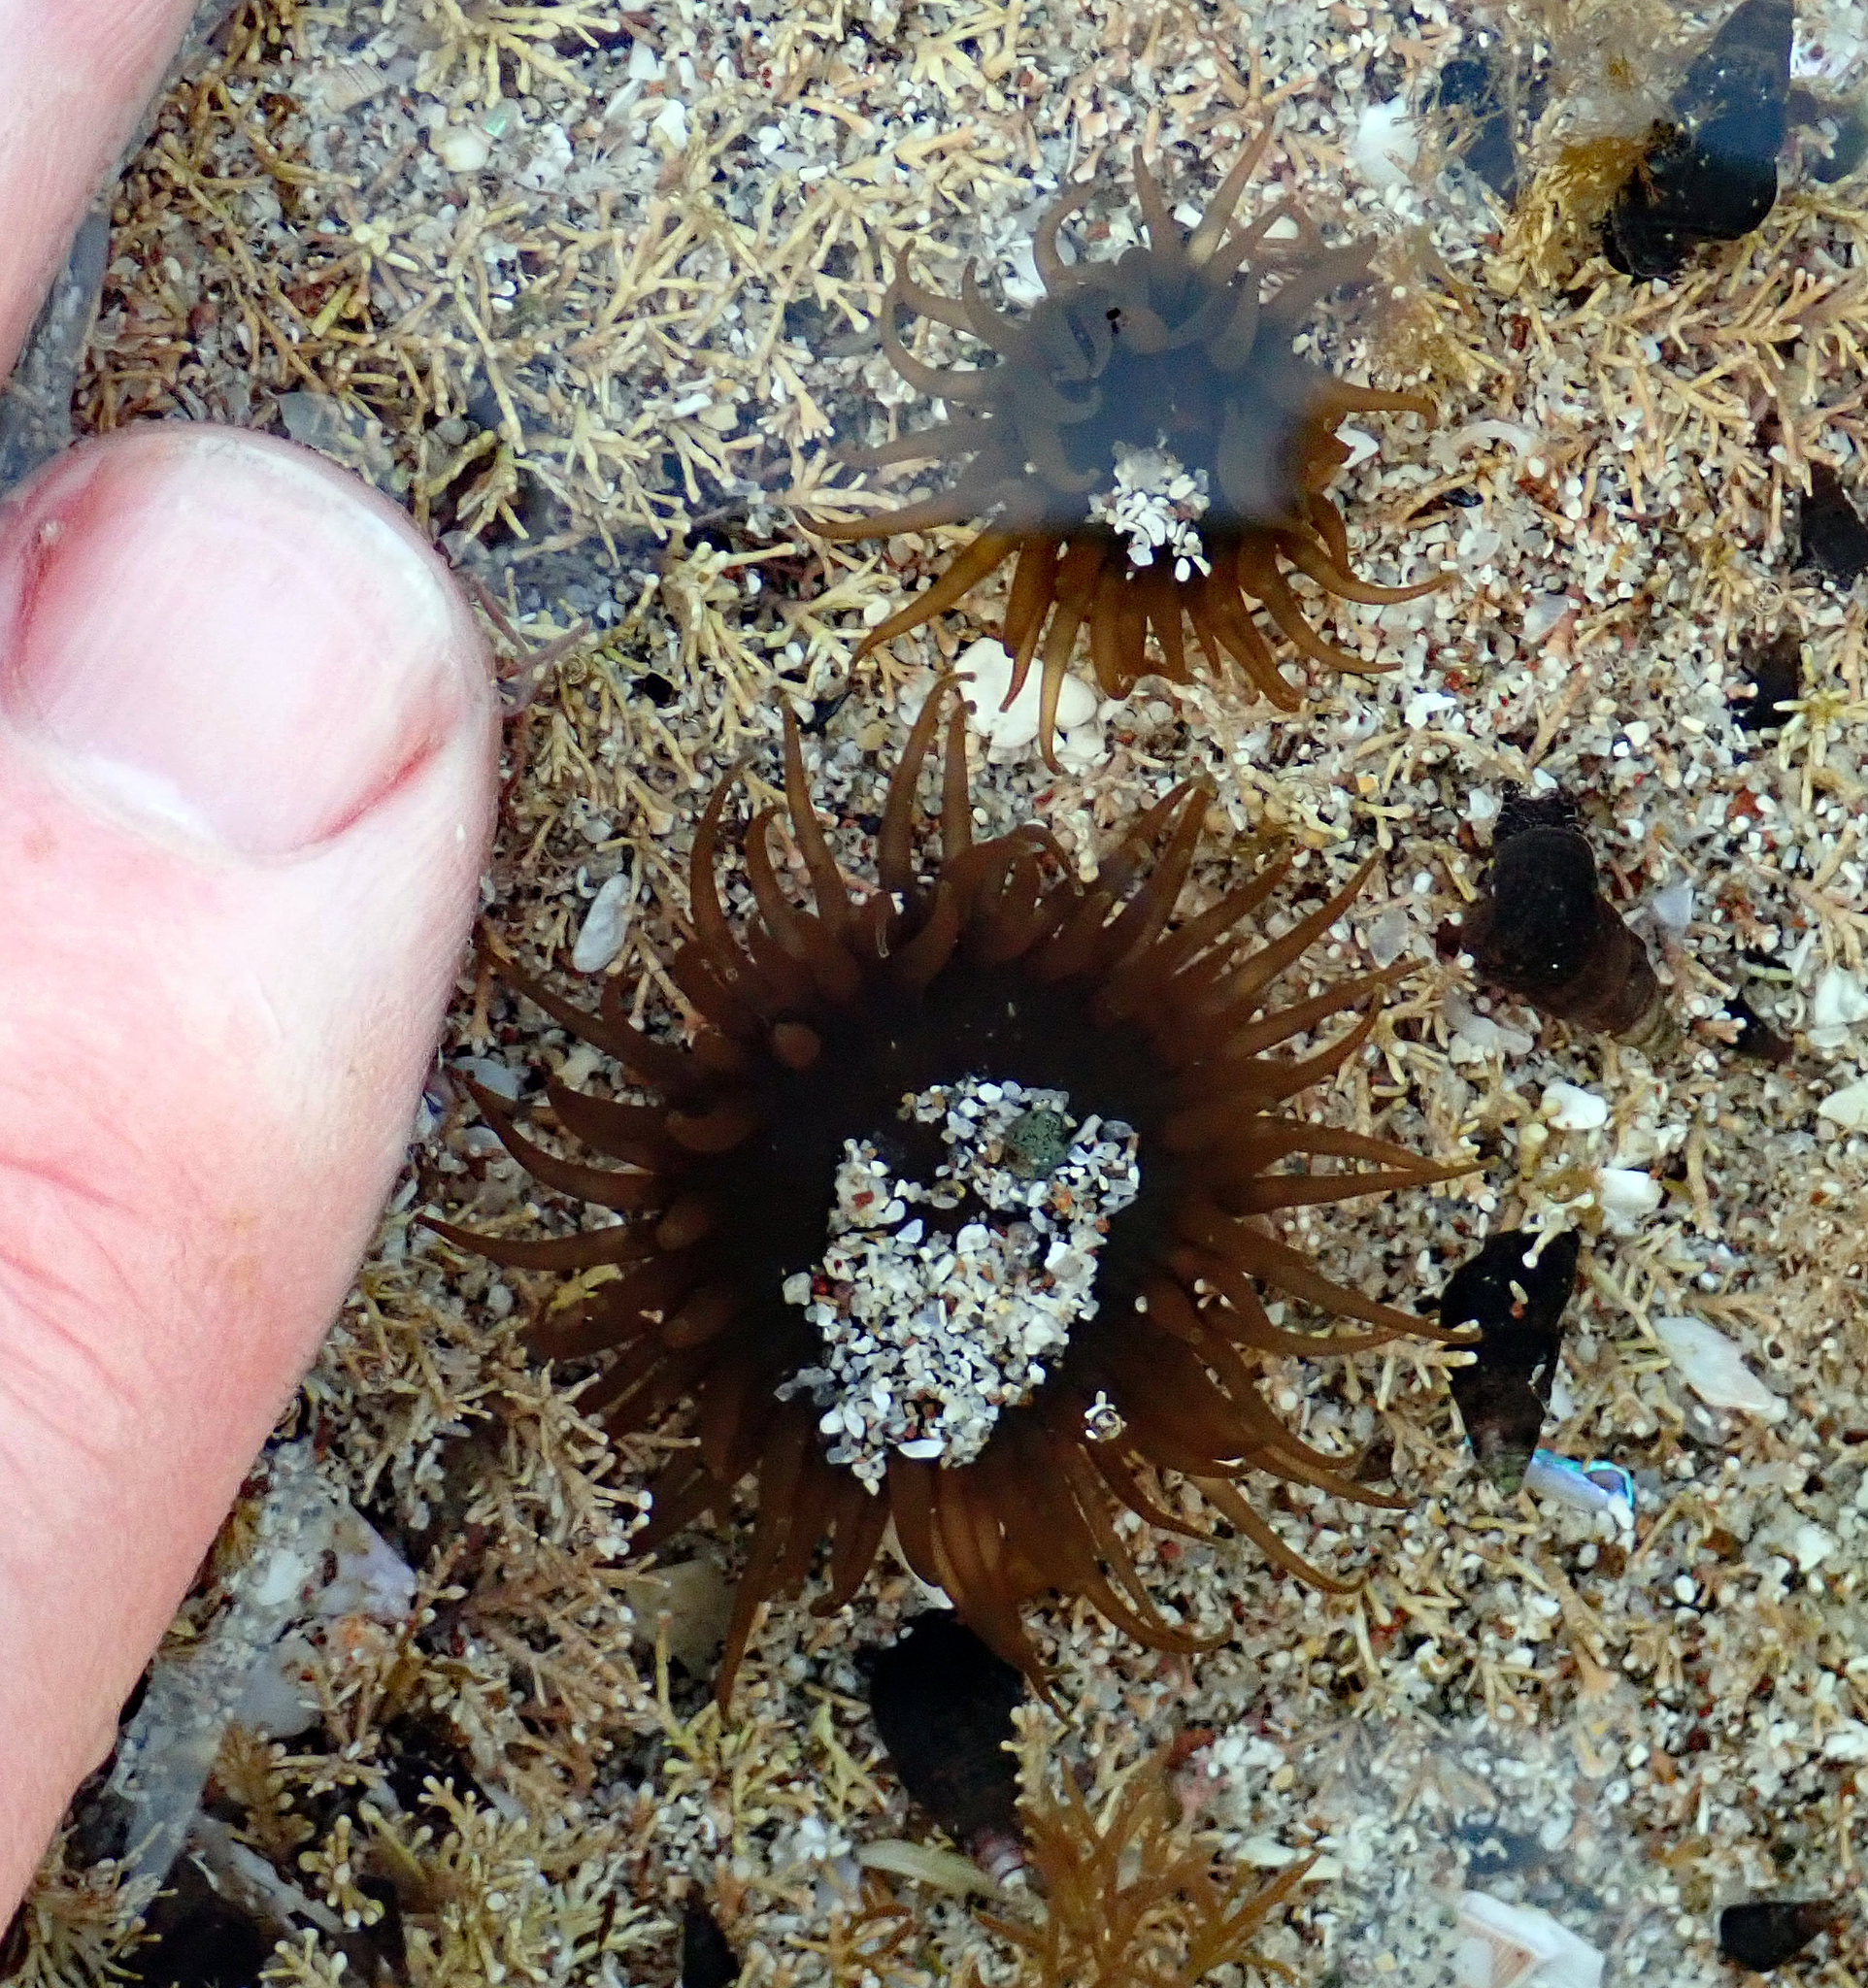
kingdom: Animalia
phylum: Cnidaria
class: Anthozoa
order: Actiniaria
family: Actiniidae
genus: Isactinia
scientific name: Isactinia olivacea
